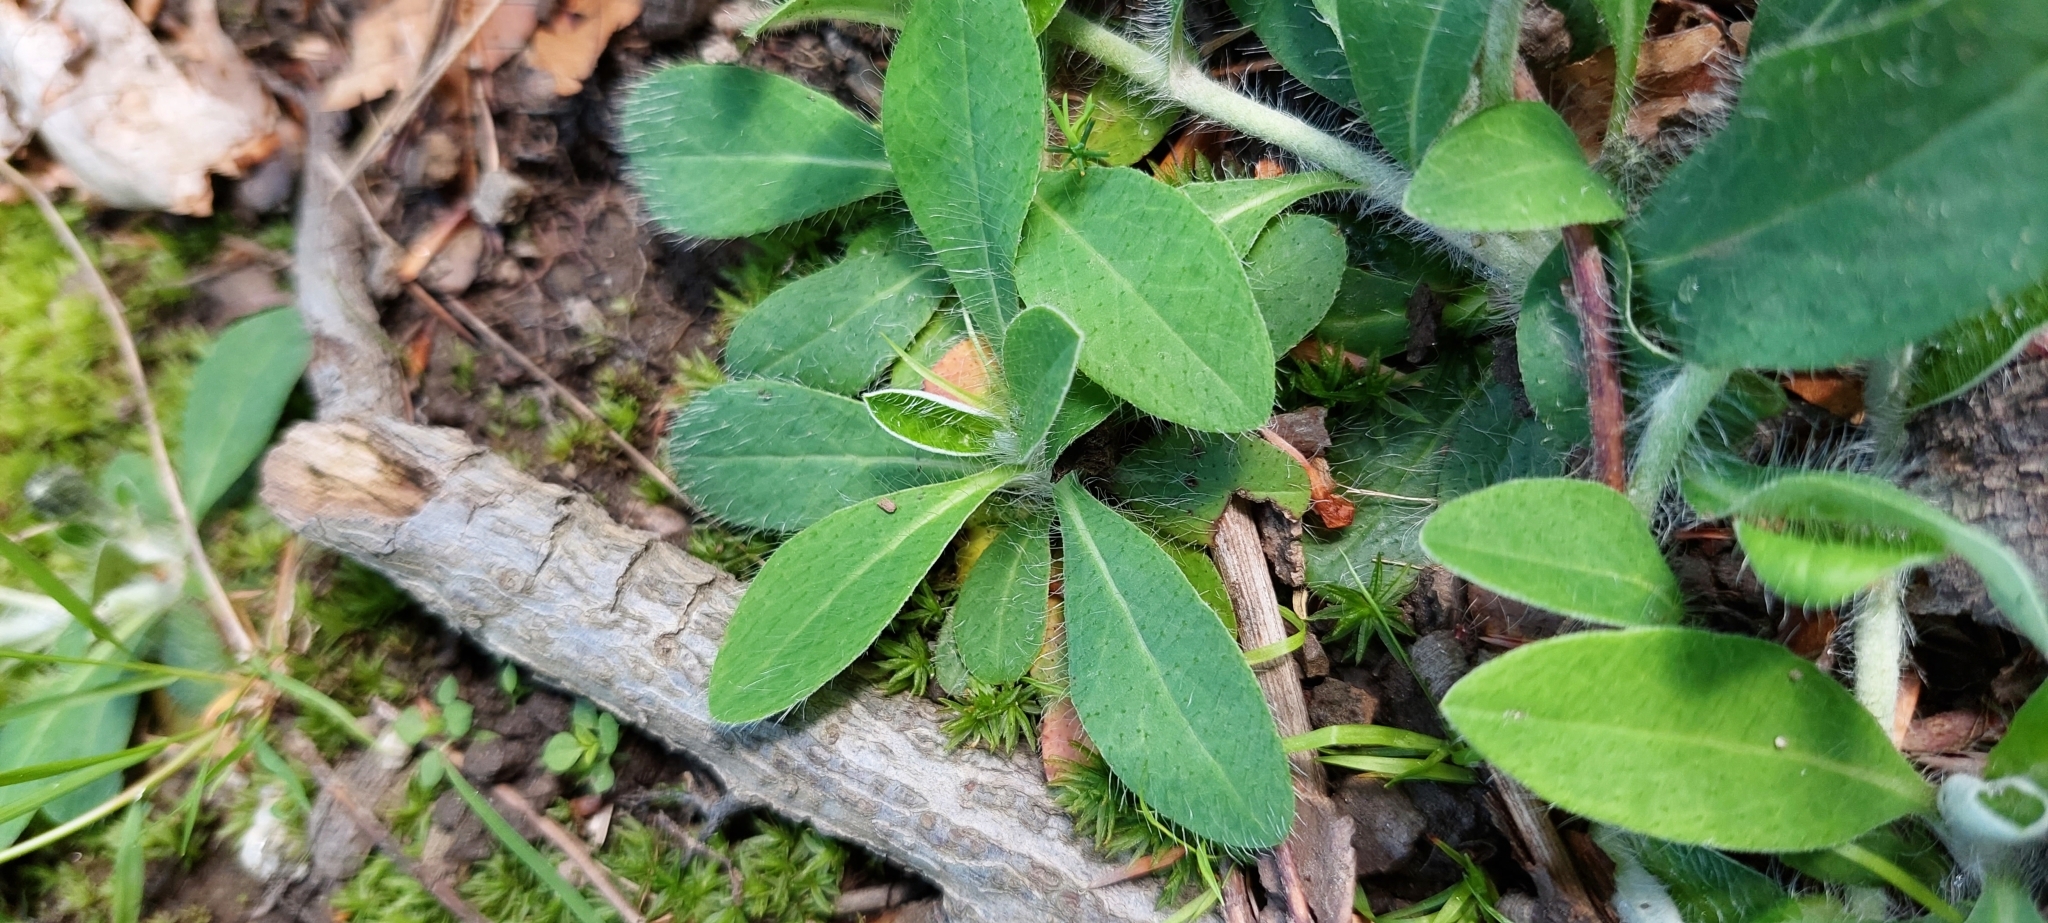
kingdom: Plantae
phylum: Tracheophyta
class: Magnoliopsida
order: Asterales
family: Asteraceae
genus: Pilosella
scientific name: Pilosella officinarum
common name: Mouse-ear hawkweed
